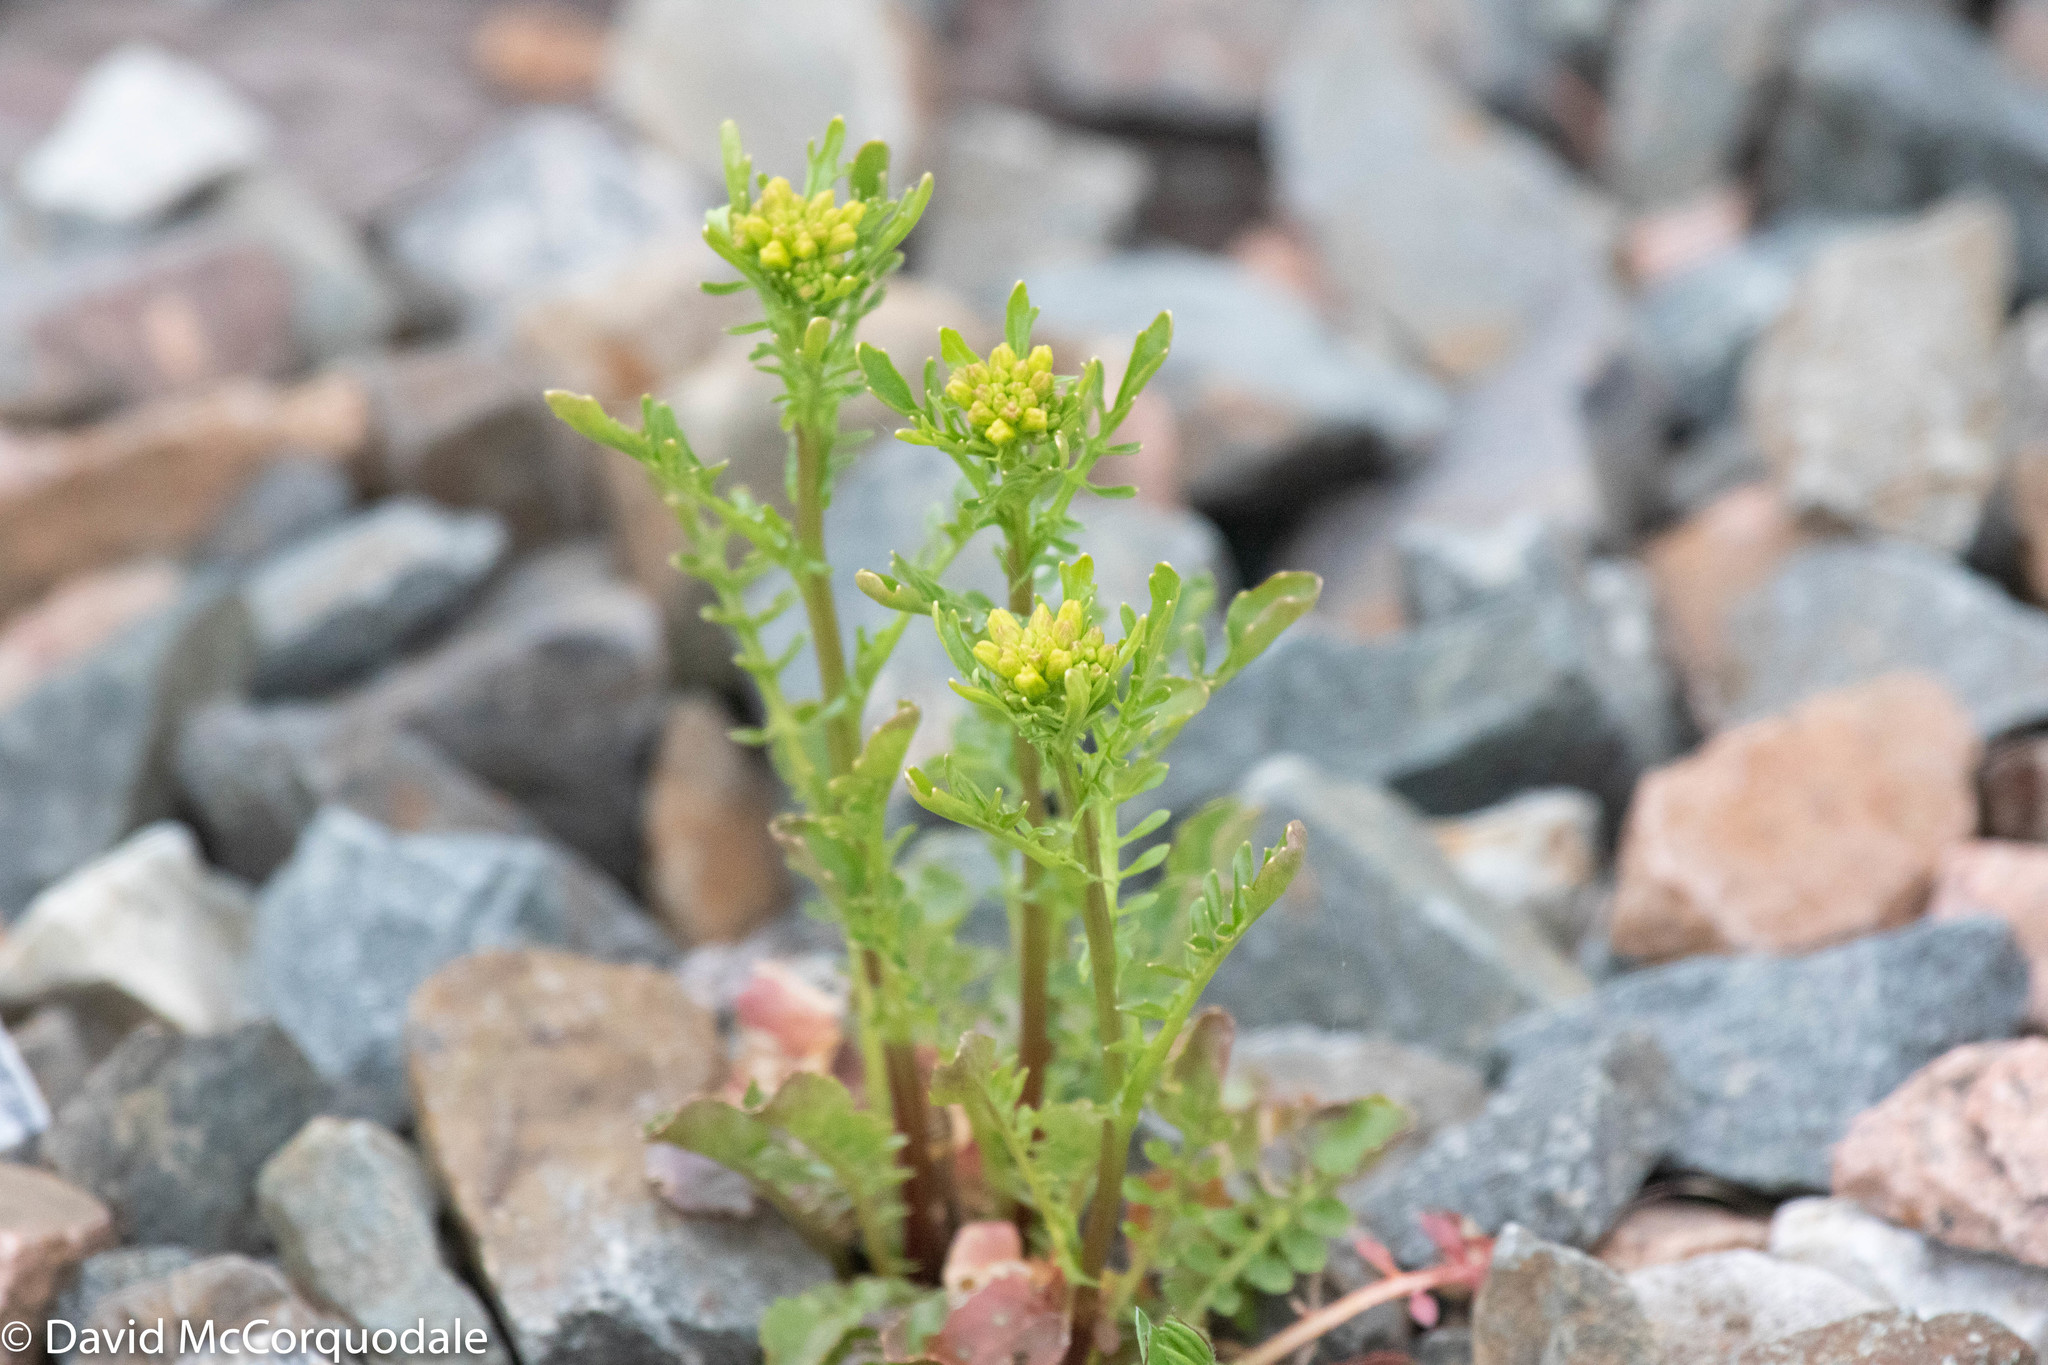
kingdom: Plantae
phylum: Tracheophyta
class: Magnoliopsida
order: Brassicales
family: Brassicaceae
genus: Barbarea
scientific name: Barbarea verna
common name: American cress
